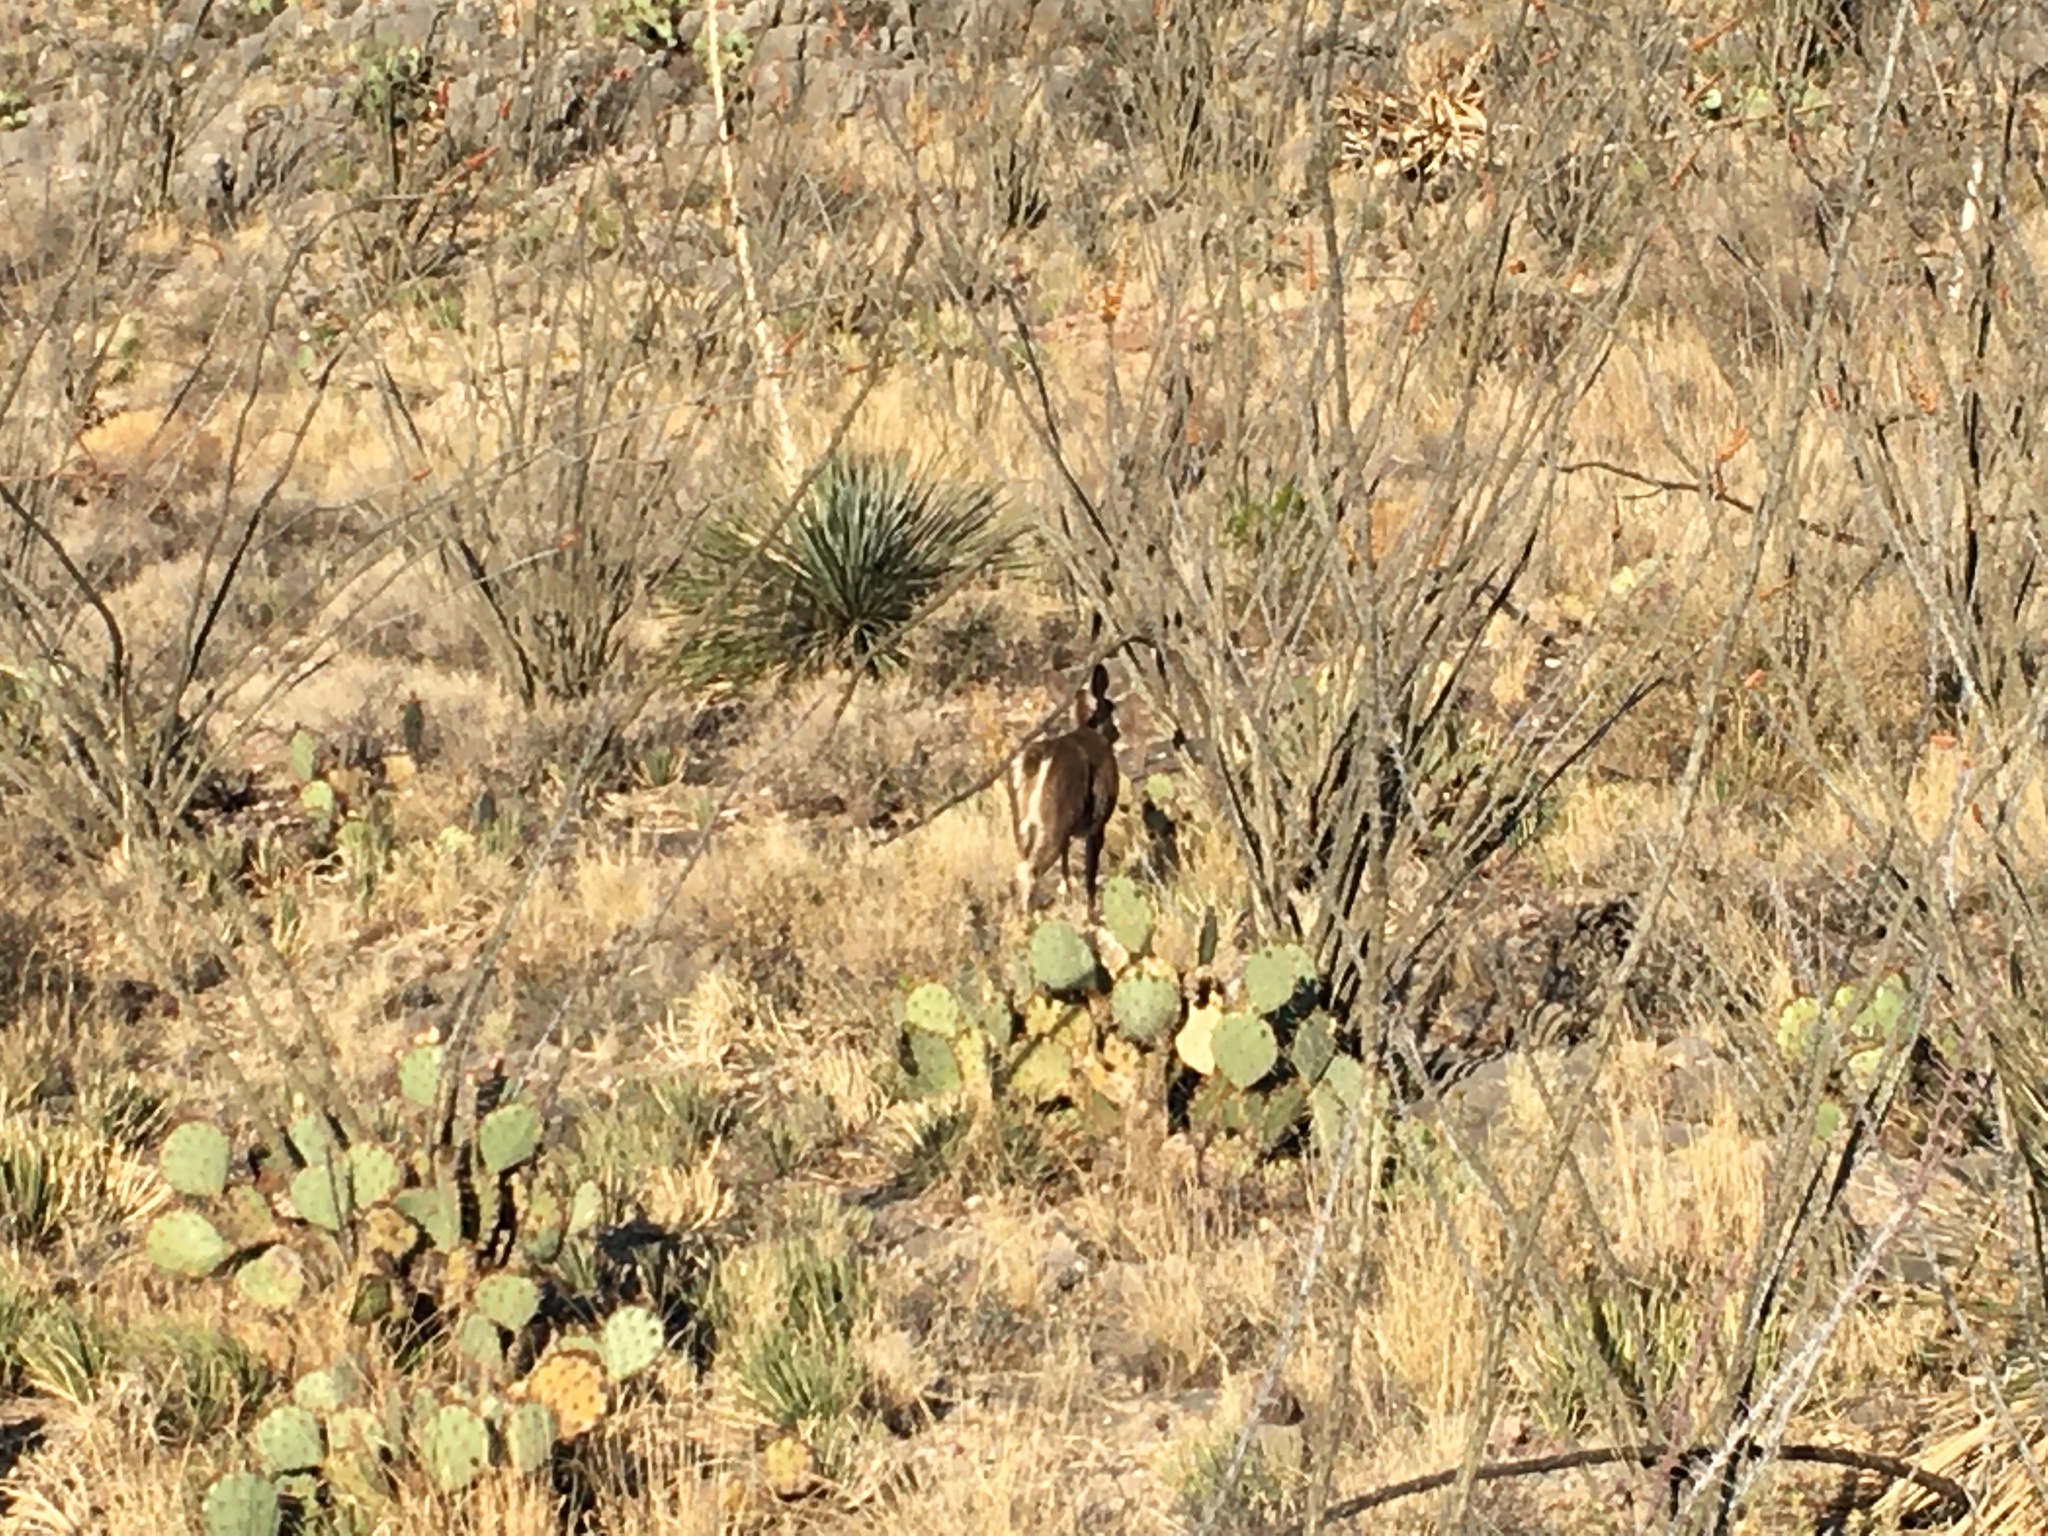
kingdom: Animalia
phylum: Chordata
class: Mammalia
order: Artiodactyla
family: Cervidae
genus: Odocoileus
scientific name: Odocoileus virginianus
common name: White-tailed deer
